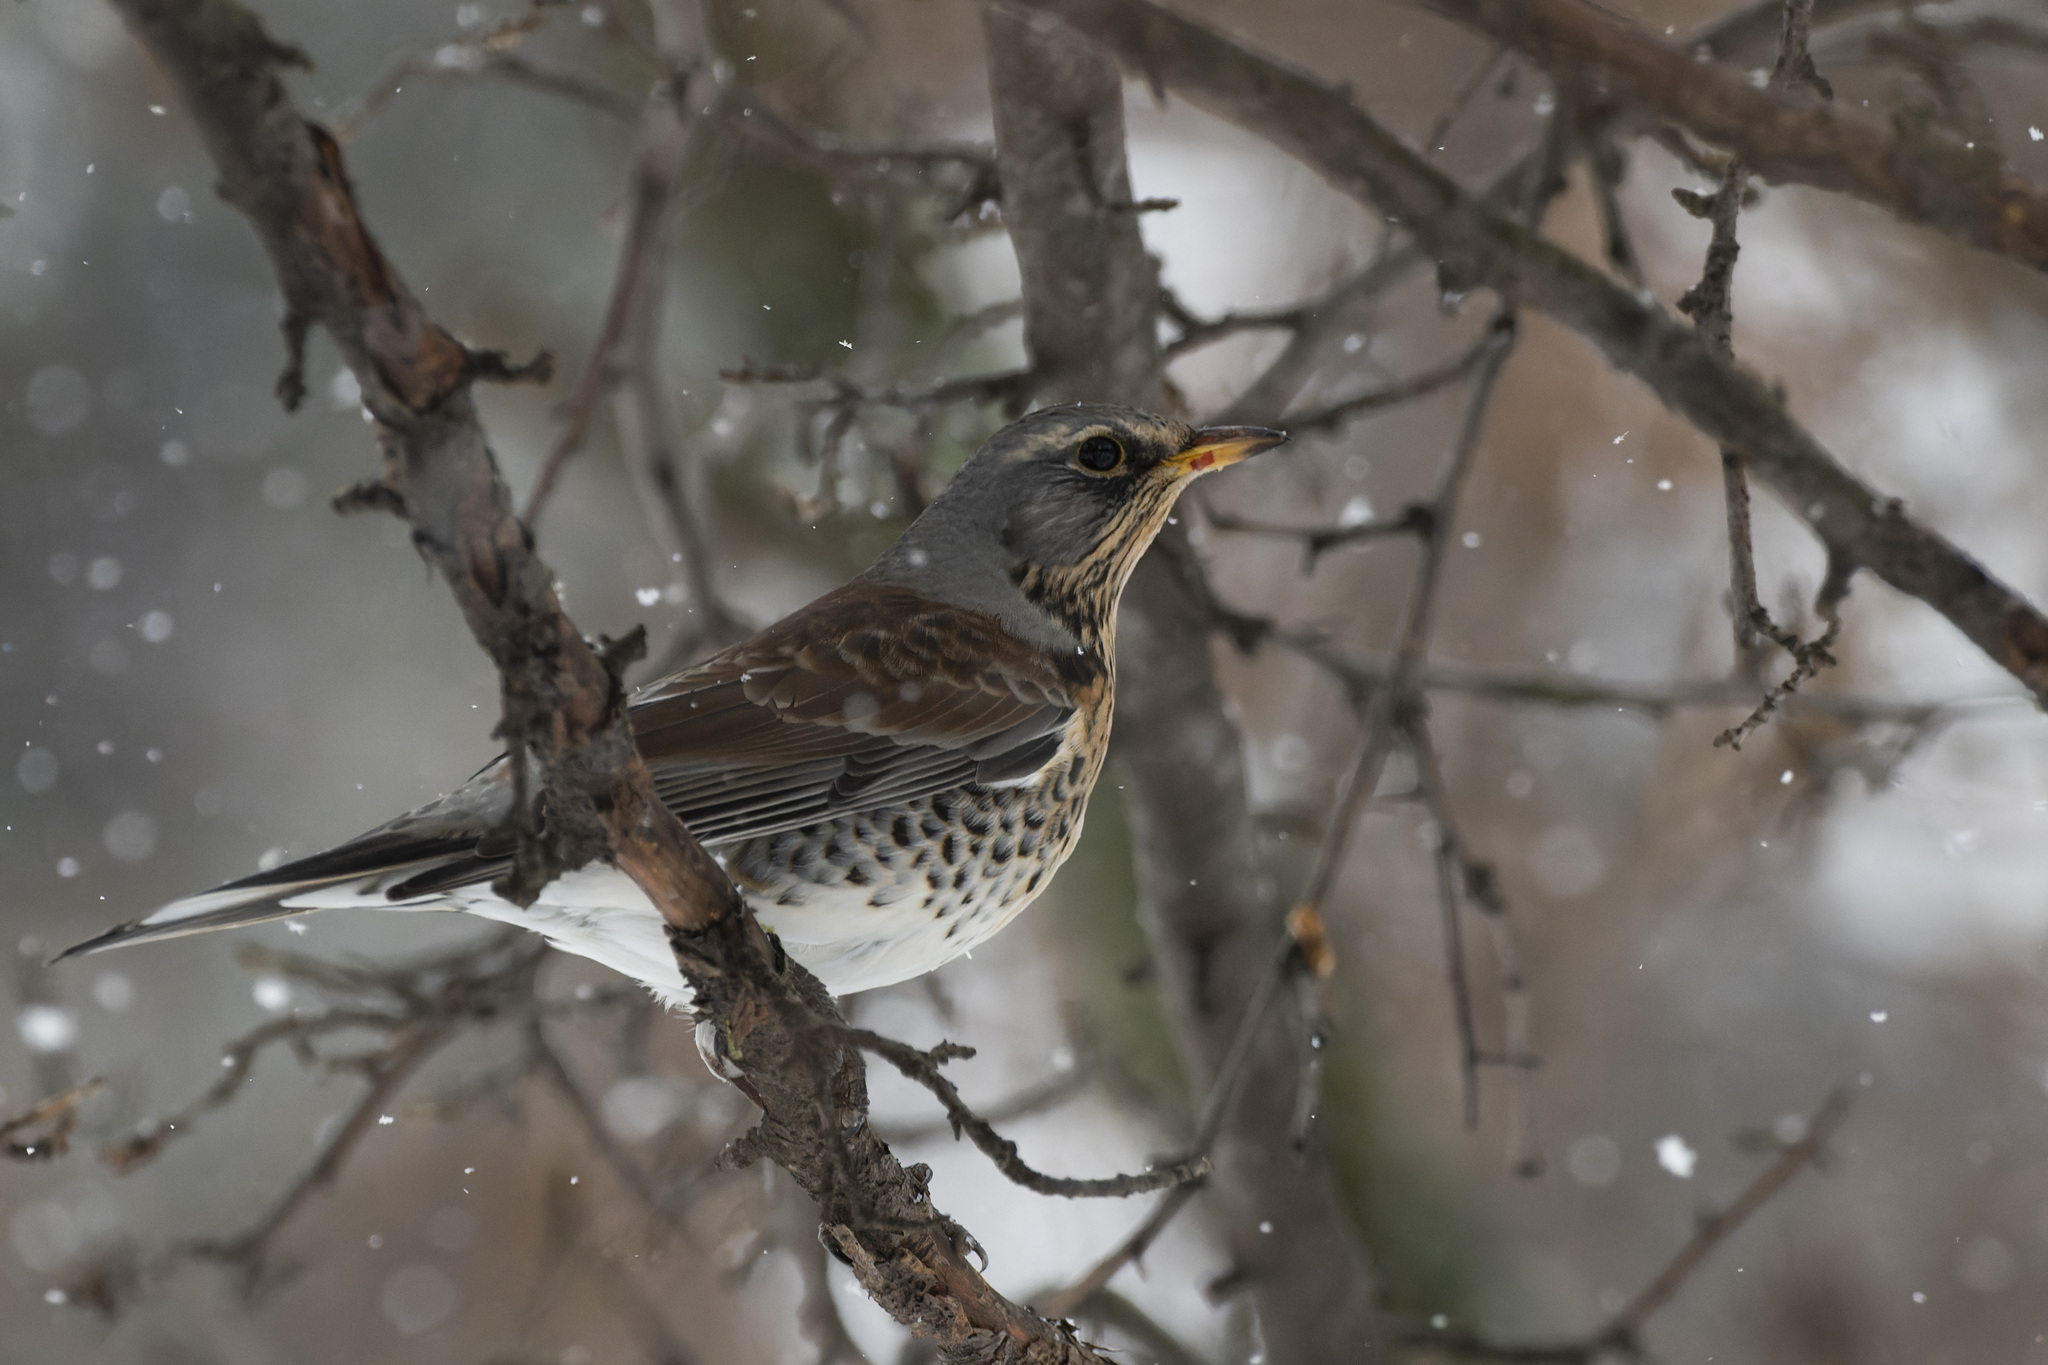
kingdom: Animalia
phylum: Chordata
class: Aves
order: Passeriformes
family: Turdidae
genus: Turdus
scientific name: Turdus pilaris
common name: Fieldfare
